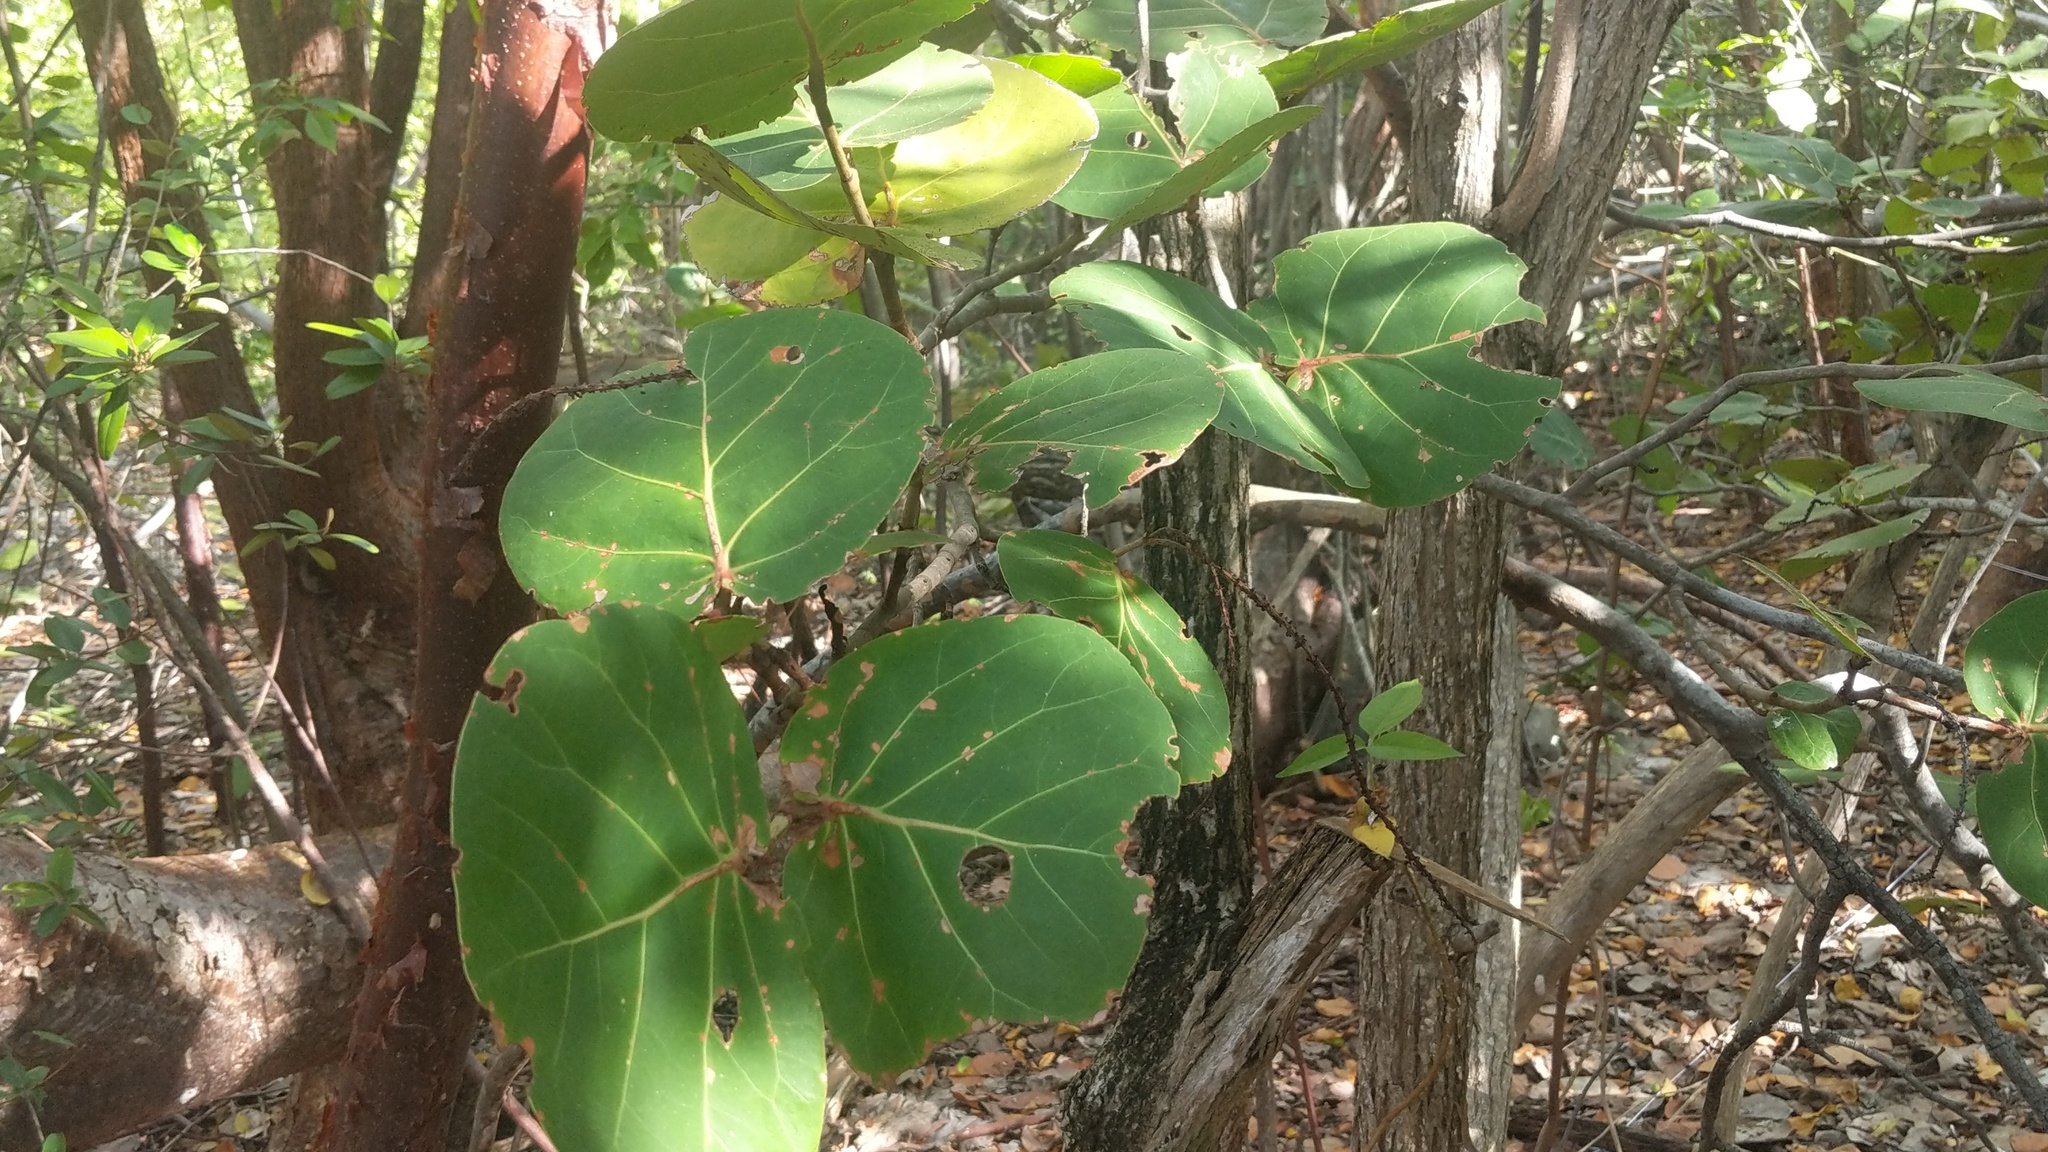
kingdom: Plantae
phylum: Tracheophyta
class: Magnoliopsida
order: Caryophyllales
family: Polygonaceae
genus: Coccoloba
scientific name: Coccoloba uvifera
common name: Seagrape
